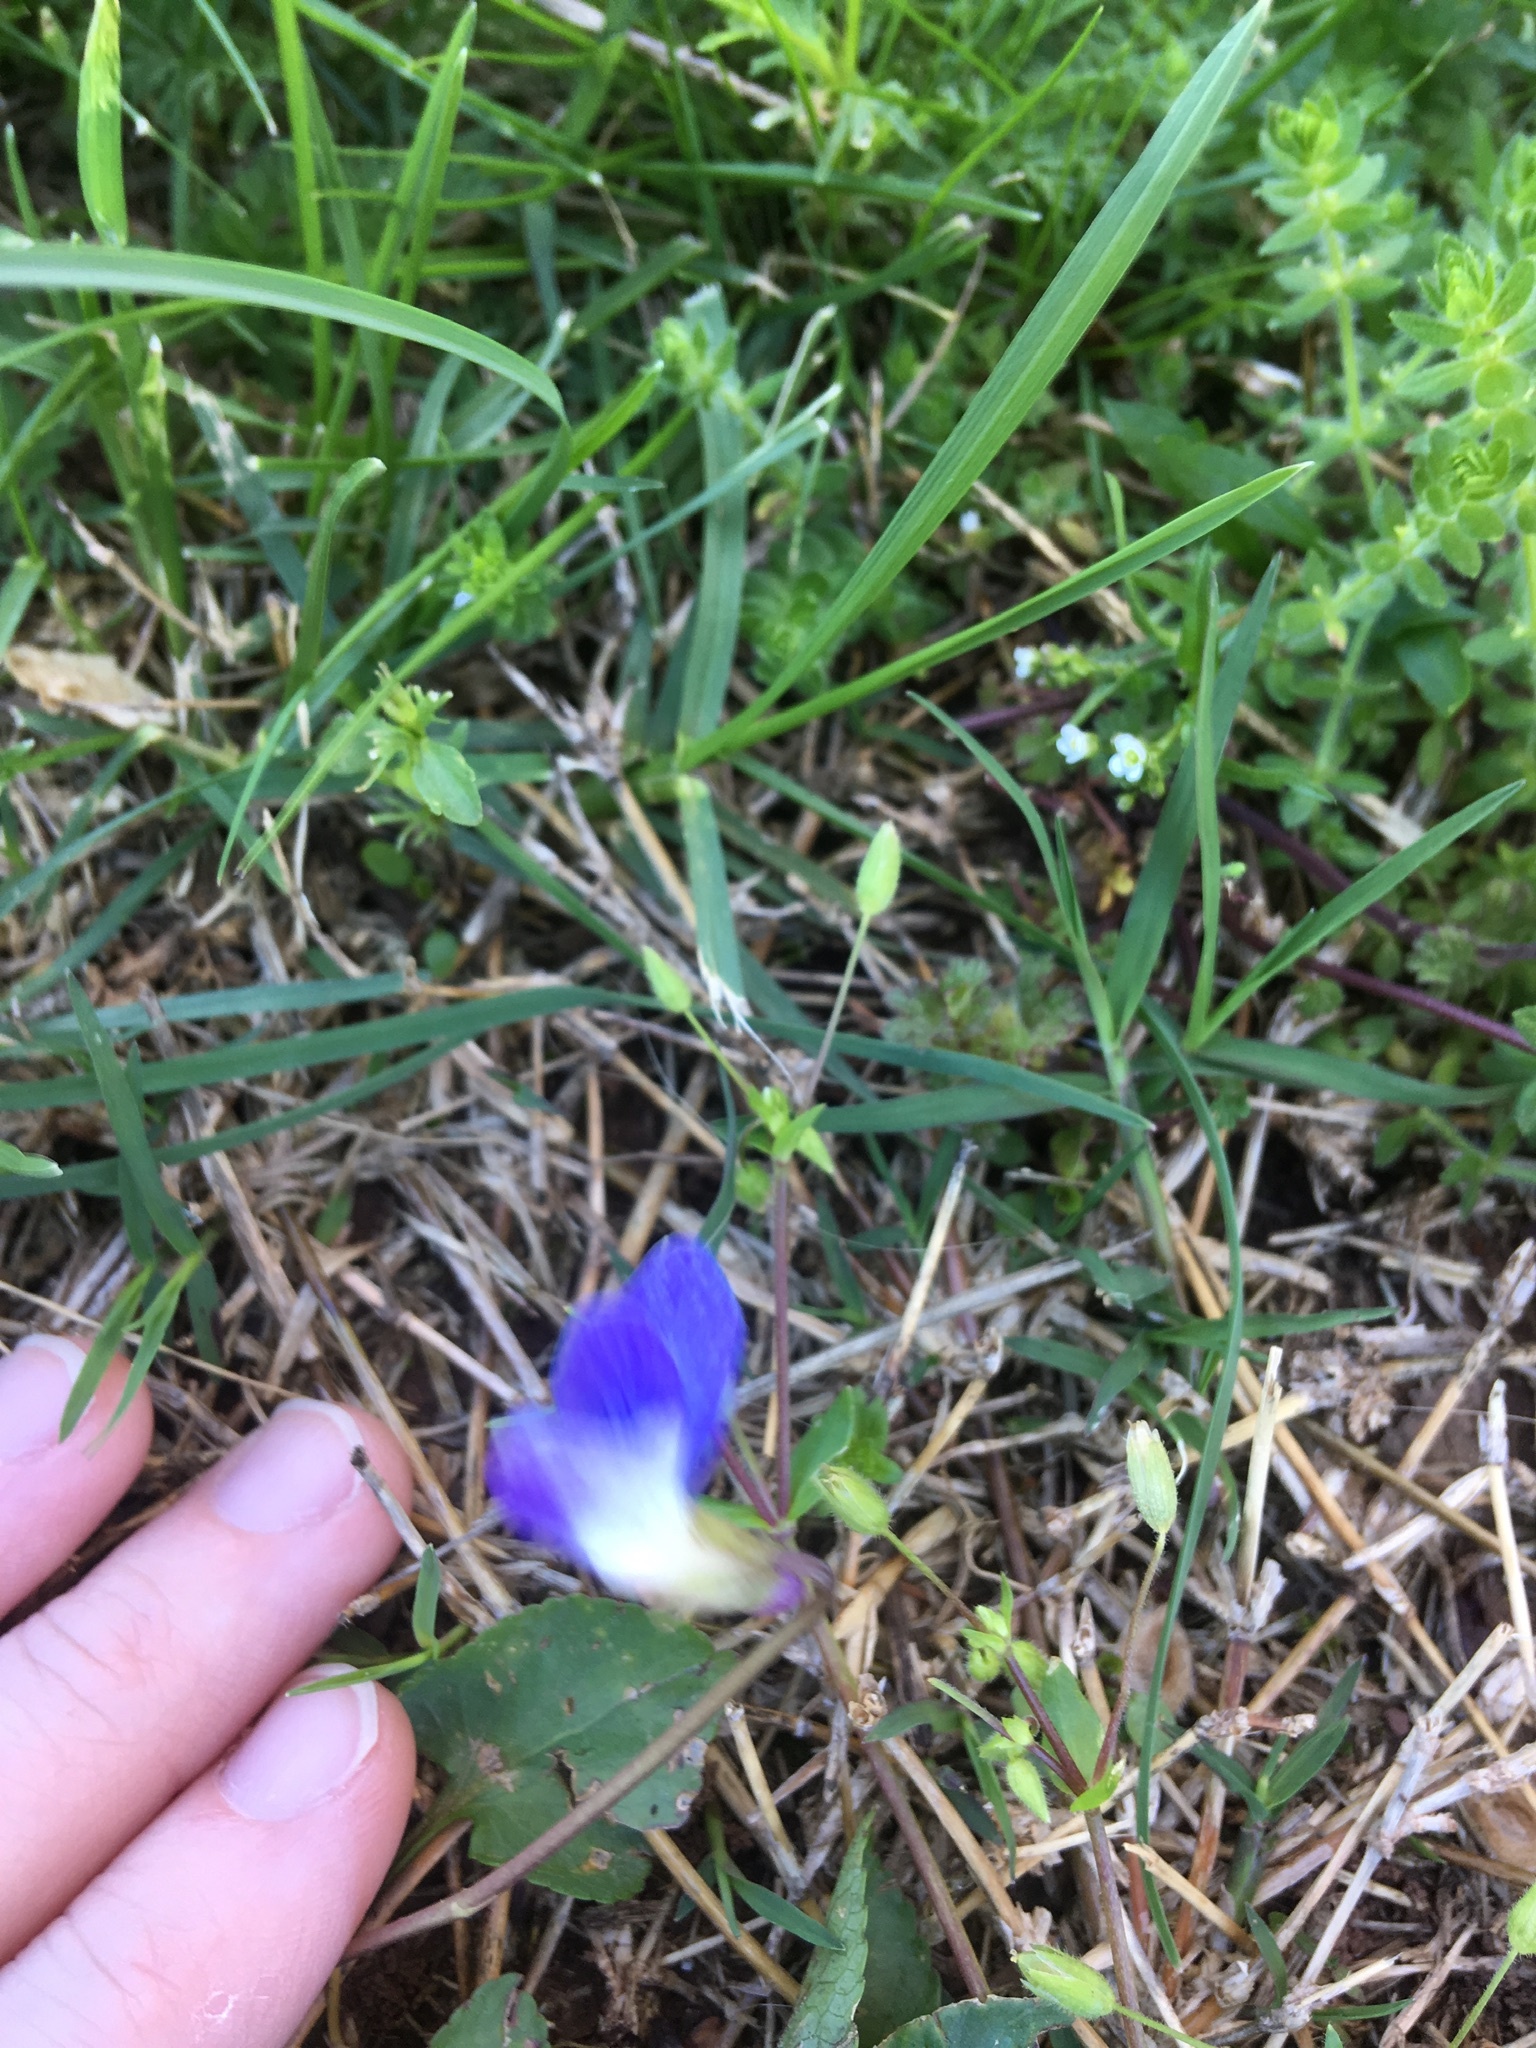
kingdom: Plantae
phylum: Tracheophyta
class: Magnoliopsida
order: Malpighiales
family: Violaceae
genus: Viola
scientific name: Viola sororia
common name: Dooryard violet
